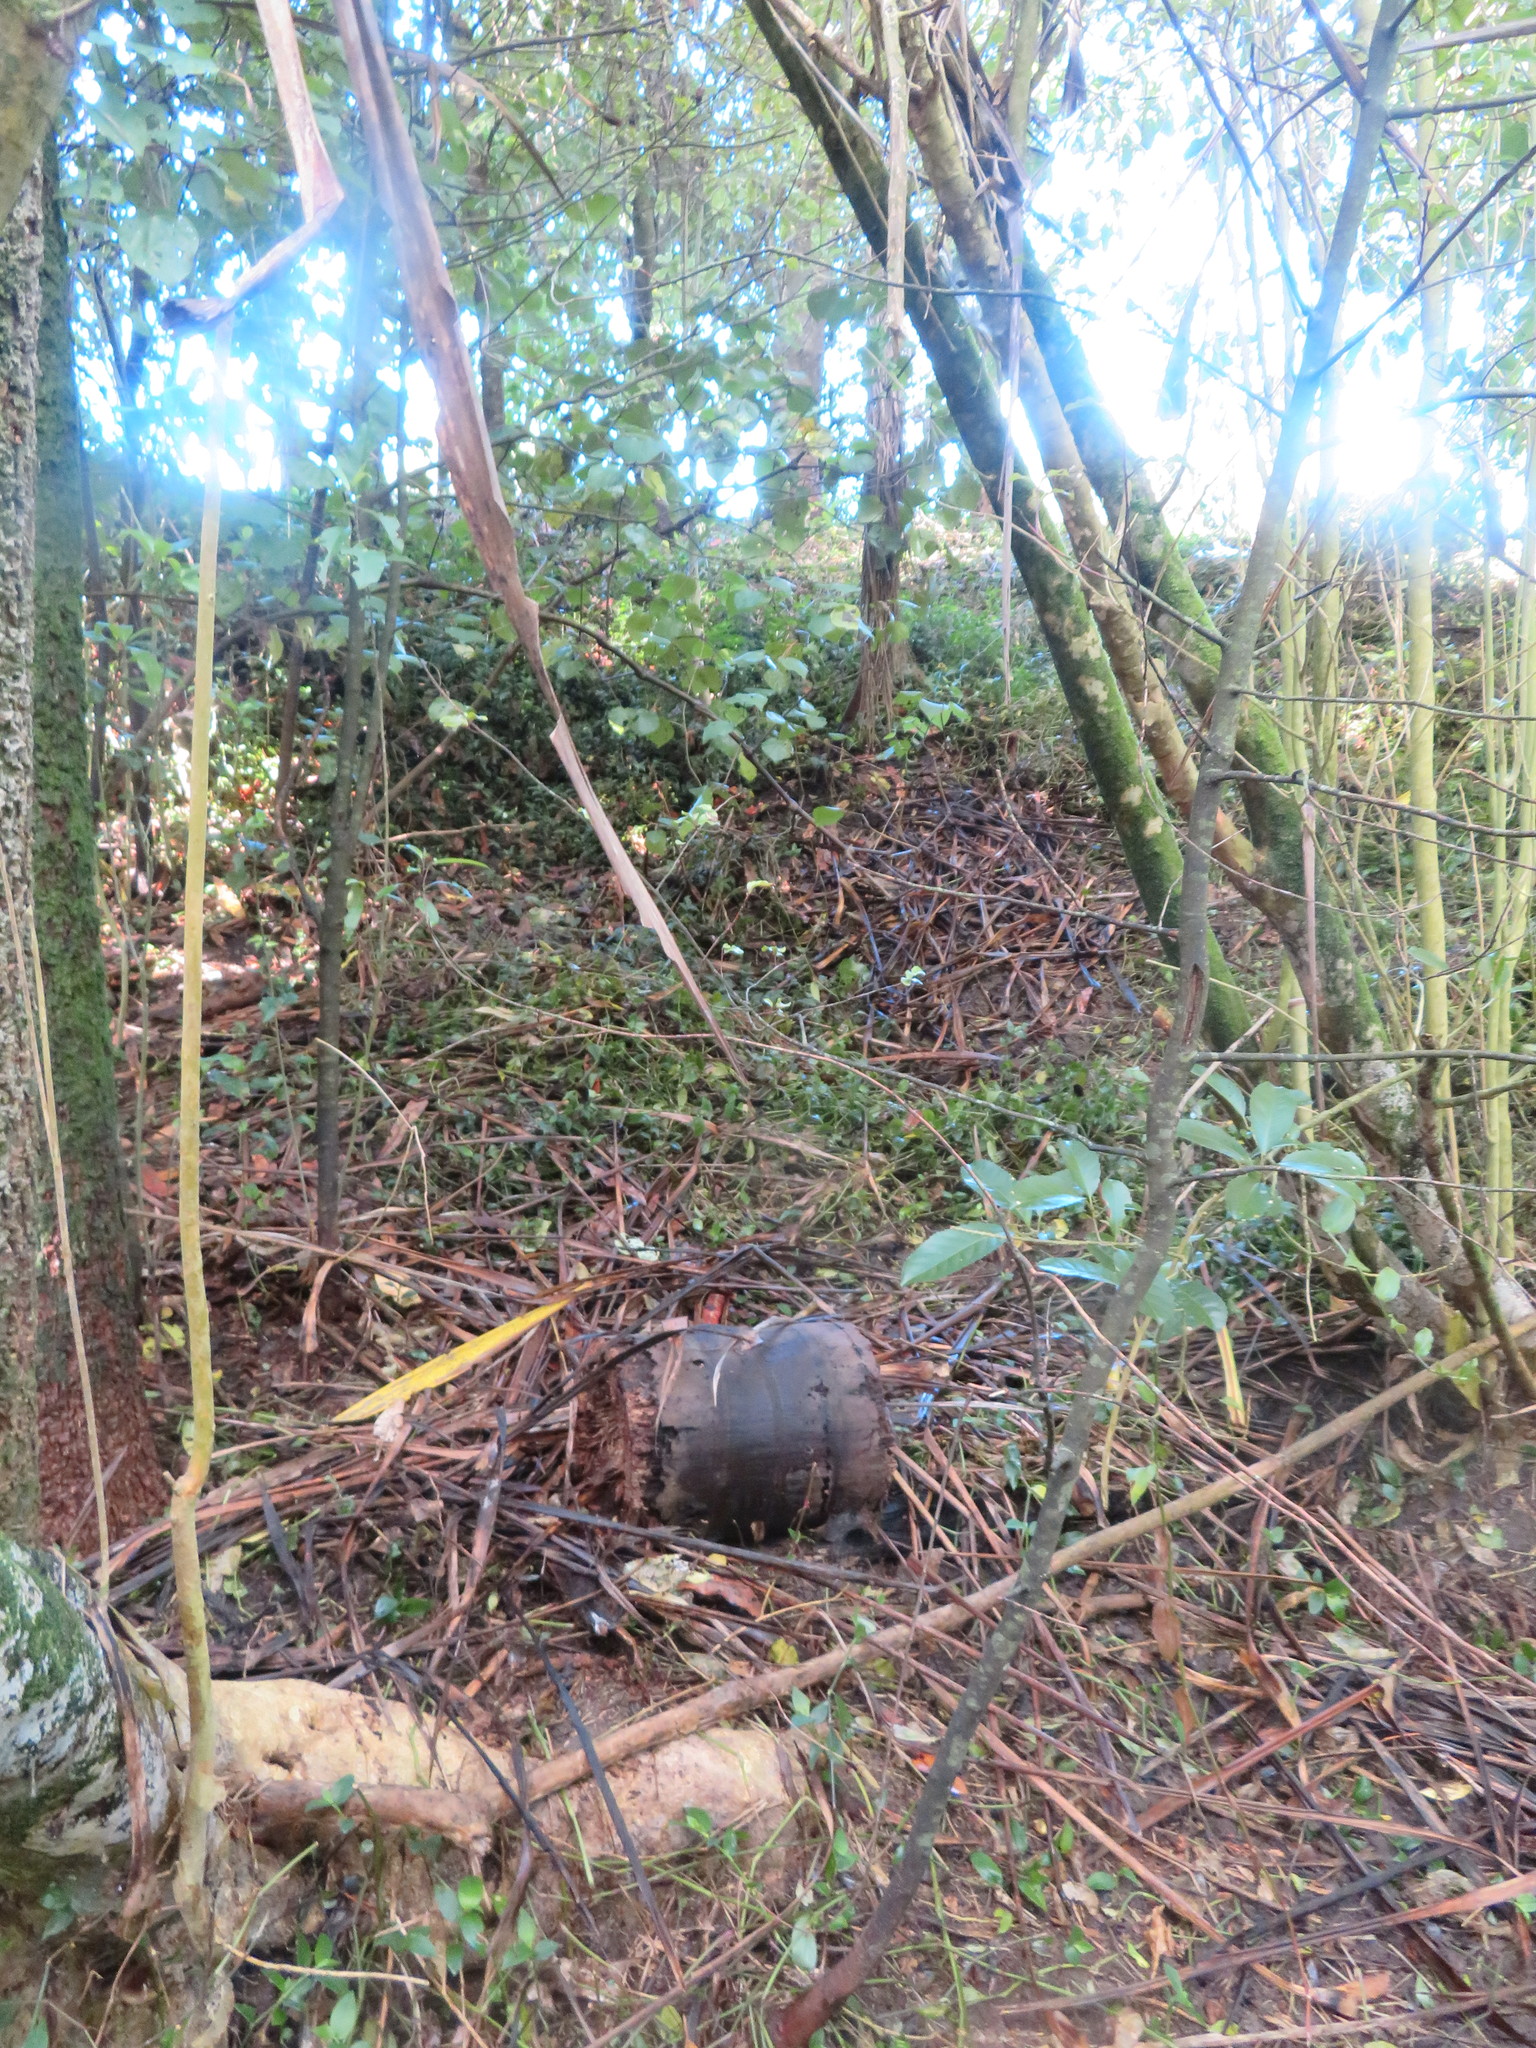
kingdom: Plantae
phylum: Tracheophyta
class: Liliopsida
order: Commelinales
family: Commelinaceae
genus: Tradescantia
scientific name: Tradescantia fluminensis
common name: Wandering-jew
